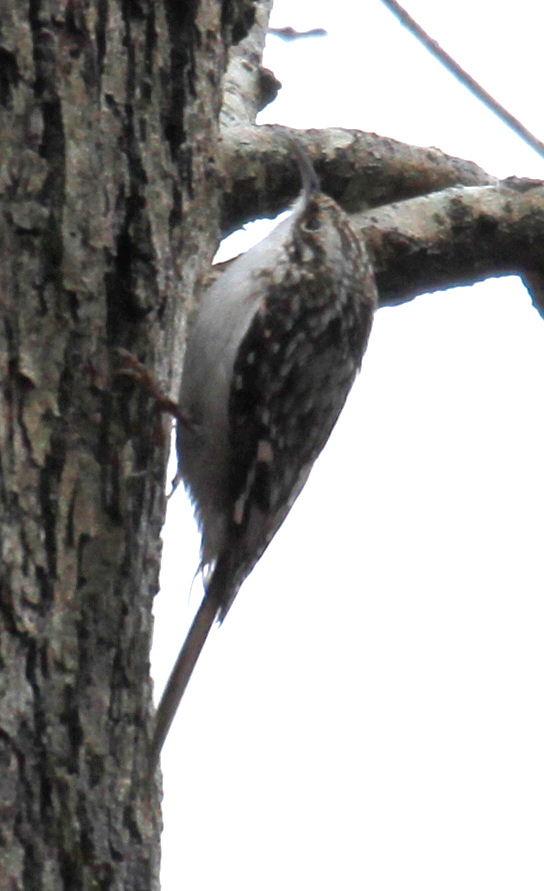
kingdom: Animalia
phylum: Chordata
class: Aves
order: Passeriformes
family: Certhiidae
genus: Certhia
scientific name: Certhia americana
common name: Brown creeper
